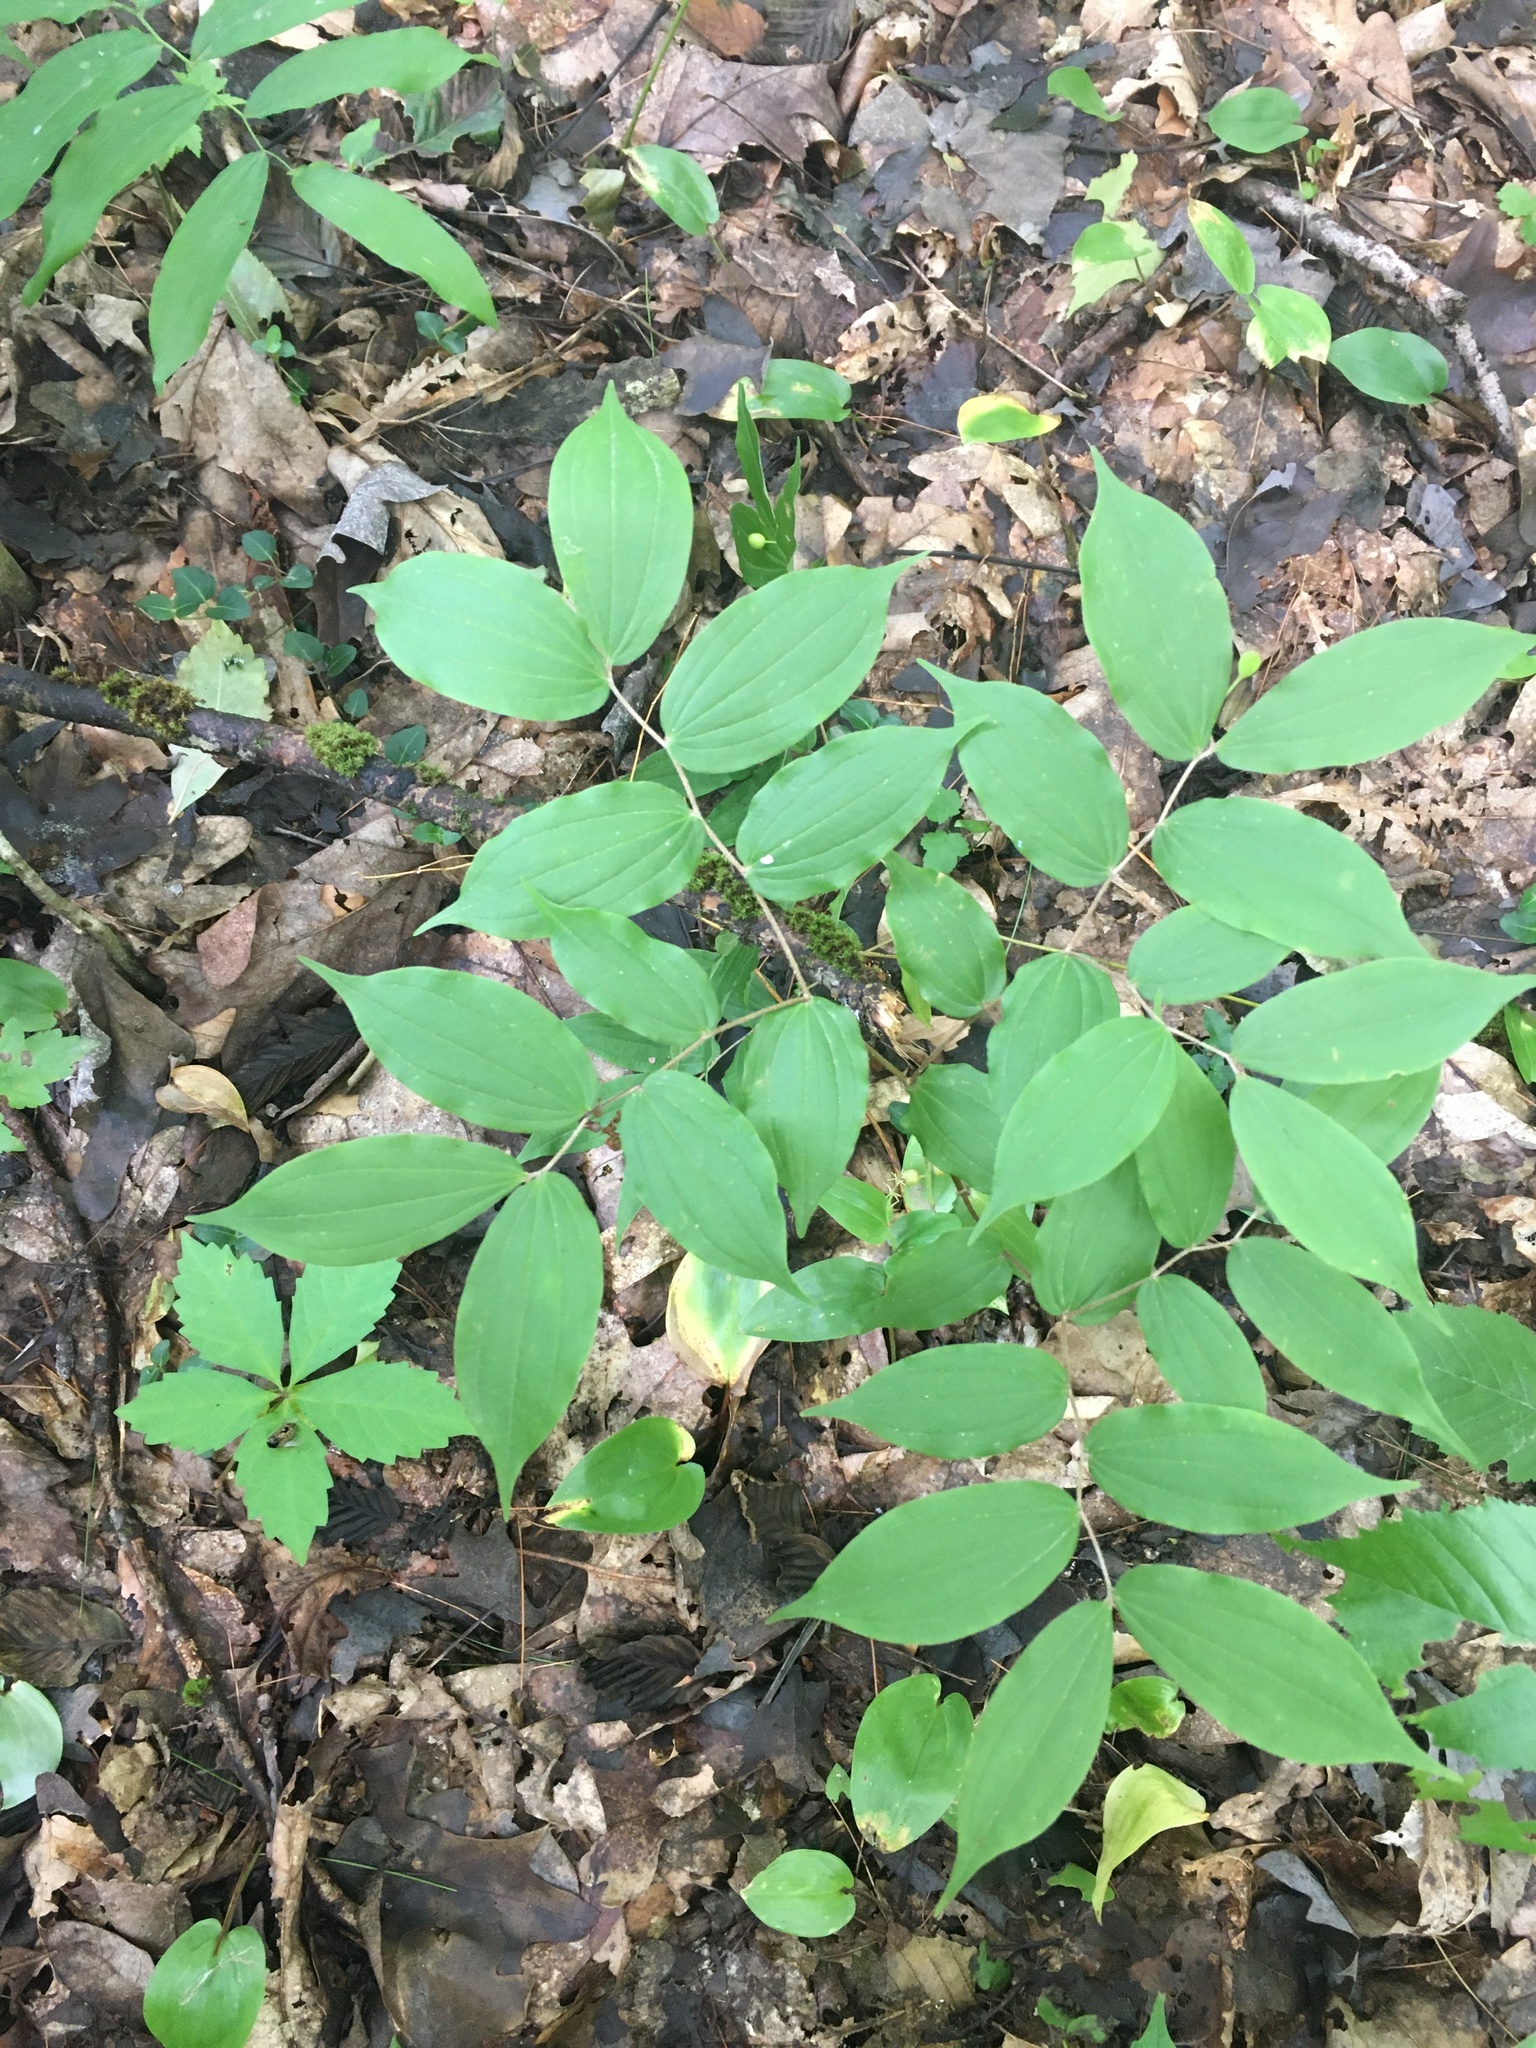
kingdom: Plantae
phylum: Tracheophyta
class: Liliopsida
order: Liliales
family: Liliaceae
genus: Prosartes
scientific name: Prosartes lanuginosa
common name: Hairy mandarin
